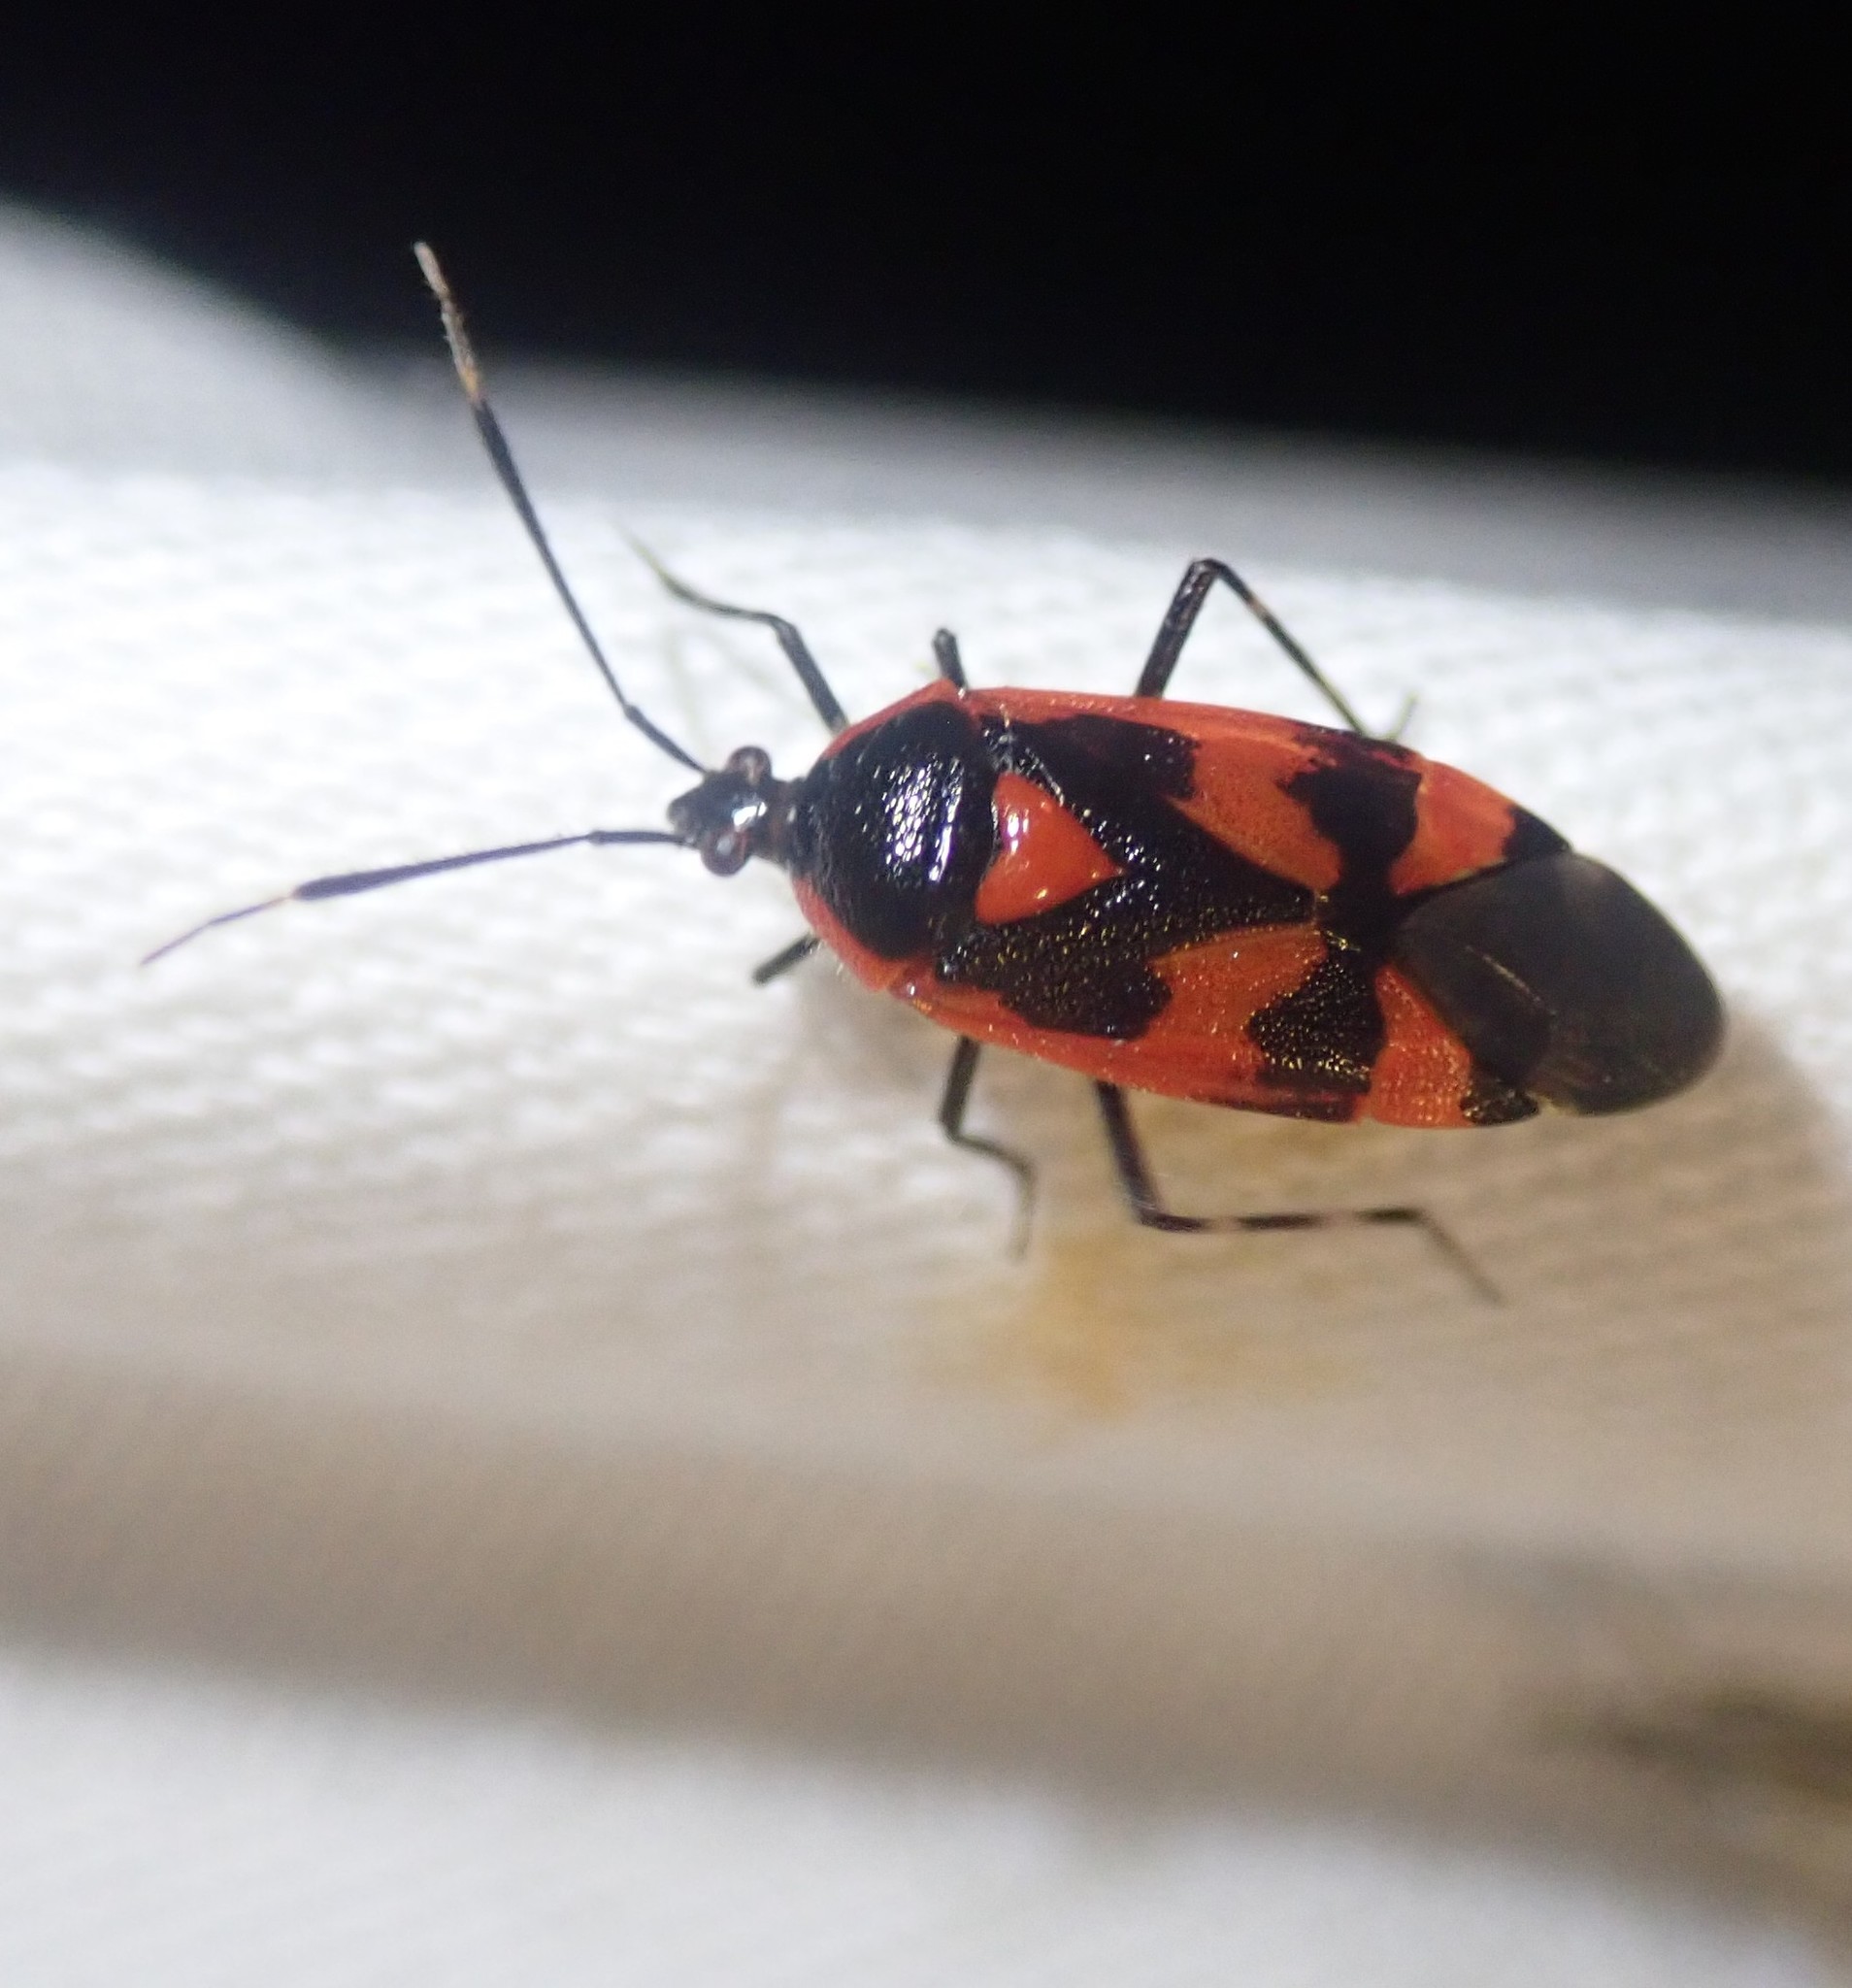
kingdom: Animalia
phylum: Arthropoda
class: Insecta
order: Hemiptera
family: Miridae
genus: Deraeocoris
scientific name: Deraeocoris trifasciatus
